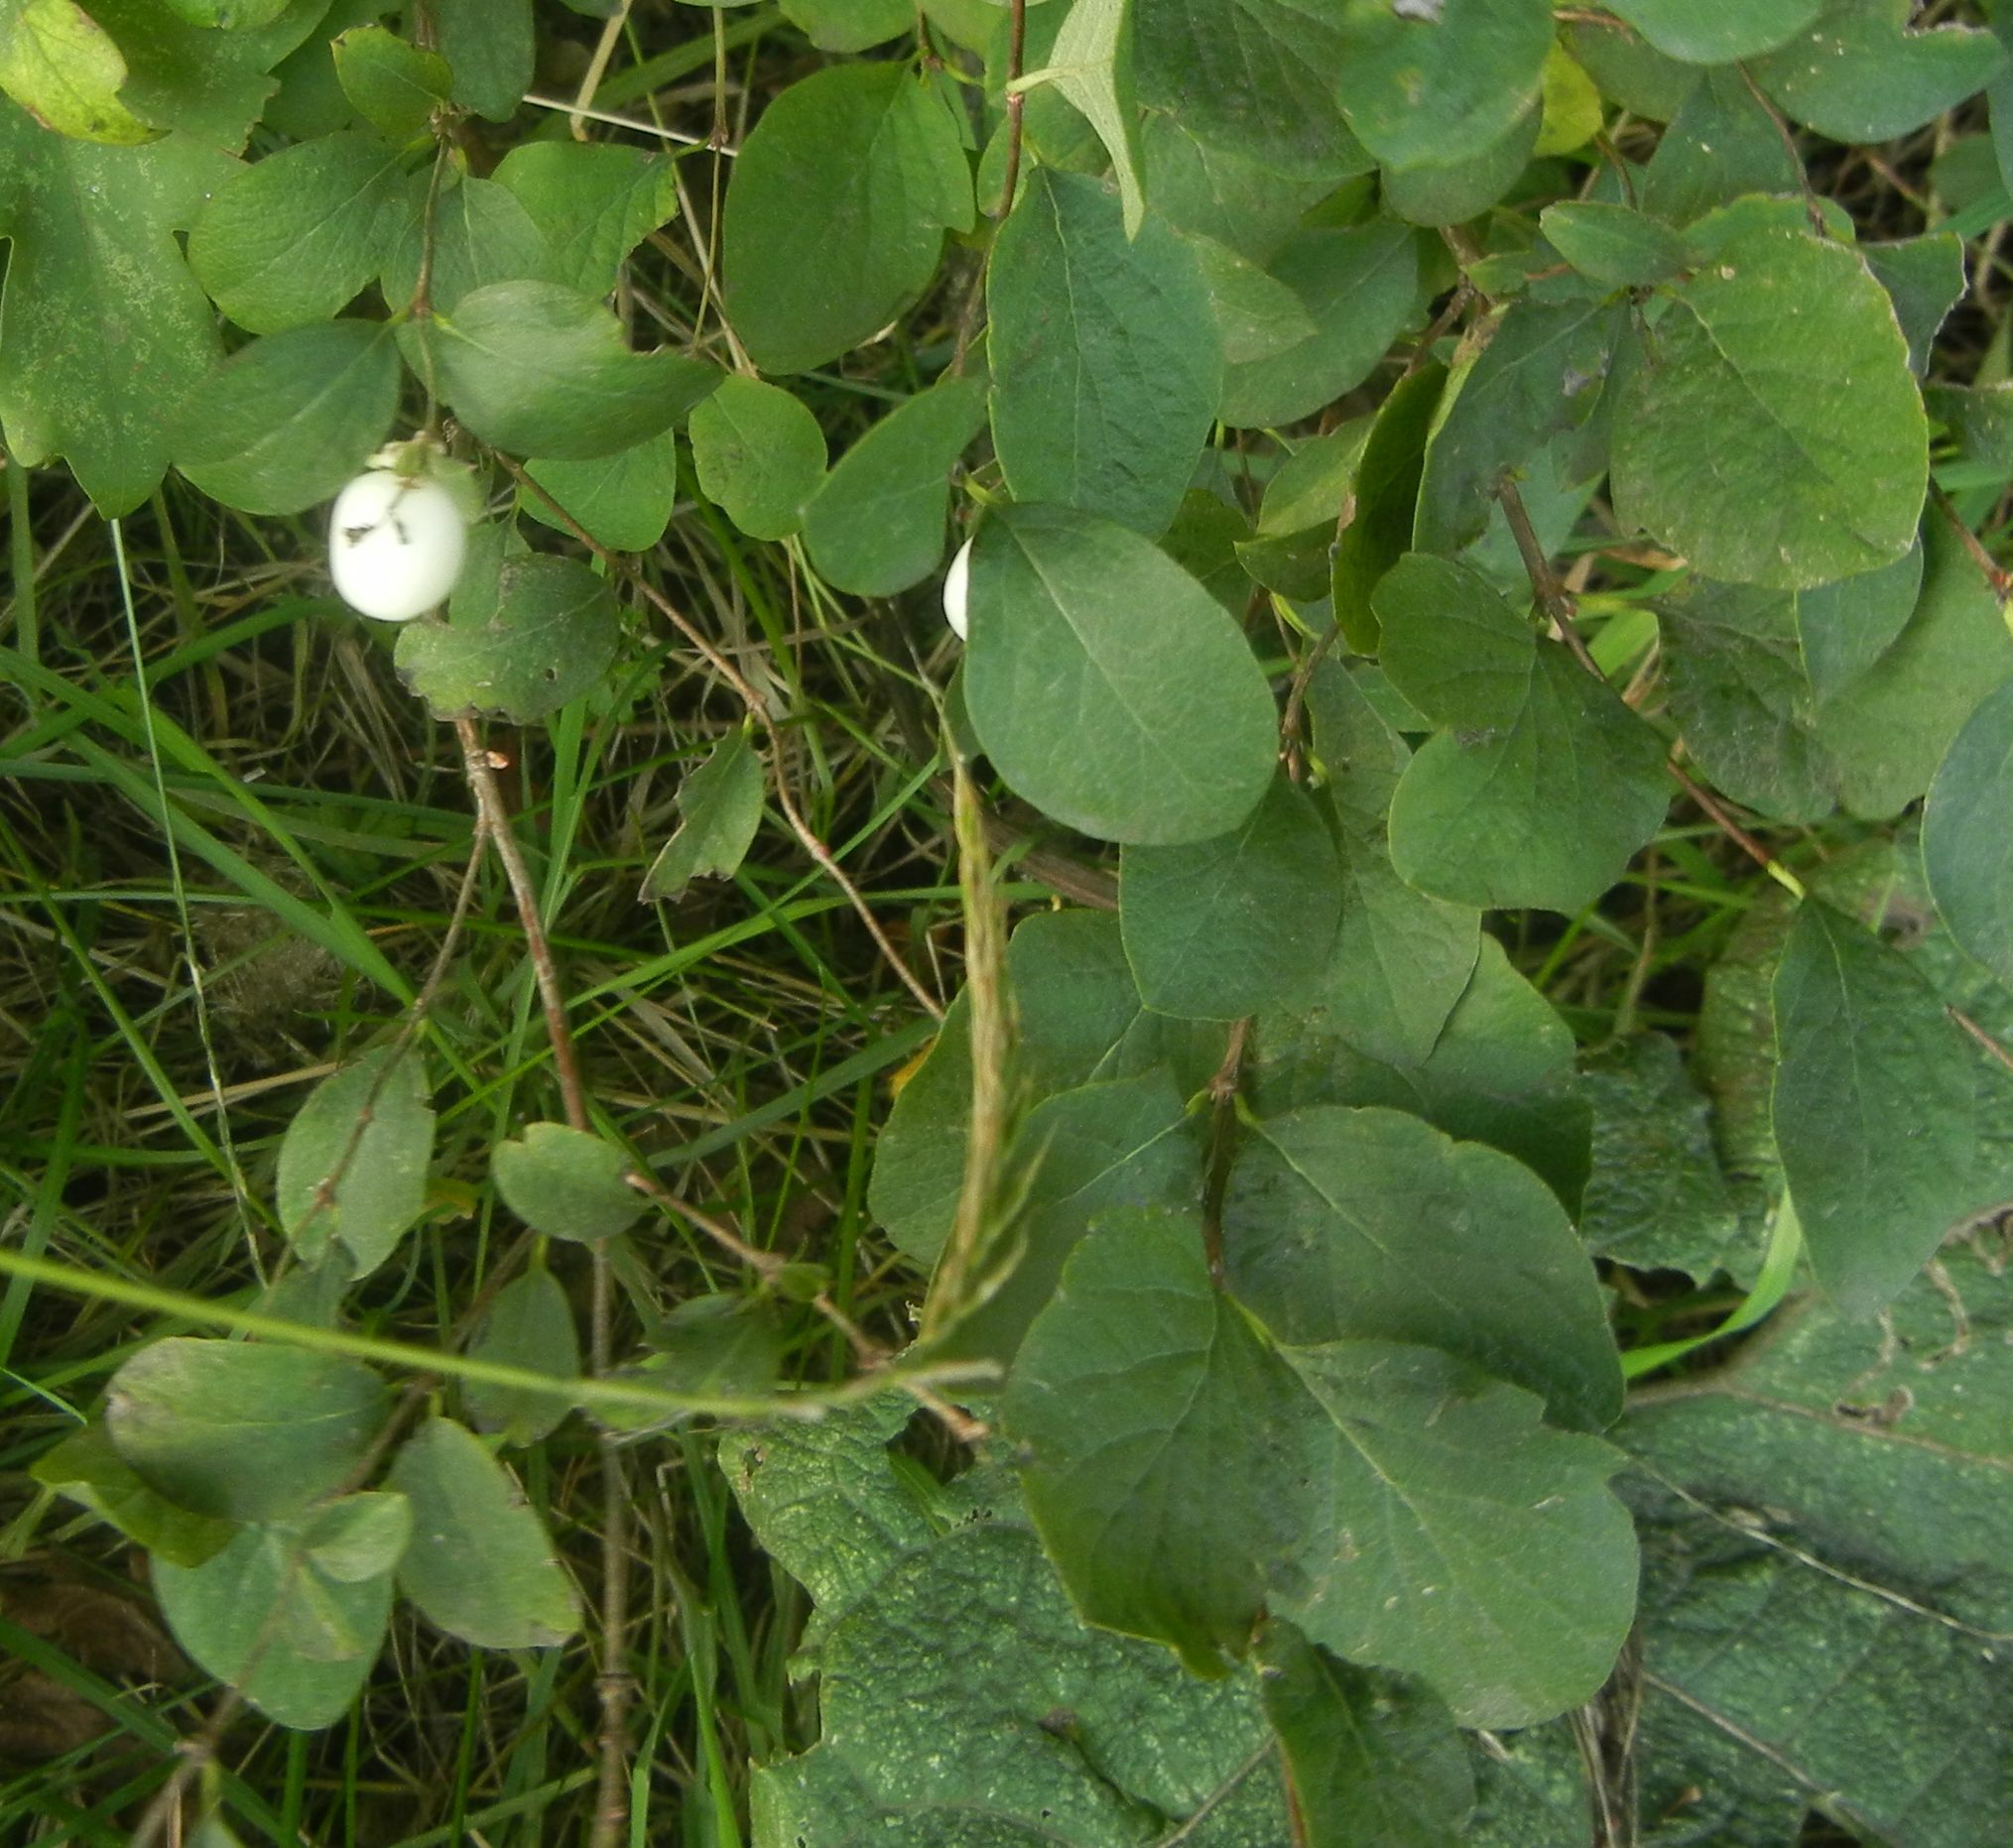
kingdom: Plantae
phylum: Tracheophyta
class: Magnoliopsida
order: Dipsacales
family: Caprifoliaceae
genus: Symphoricarpos
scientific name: Symphoricarpos albus
